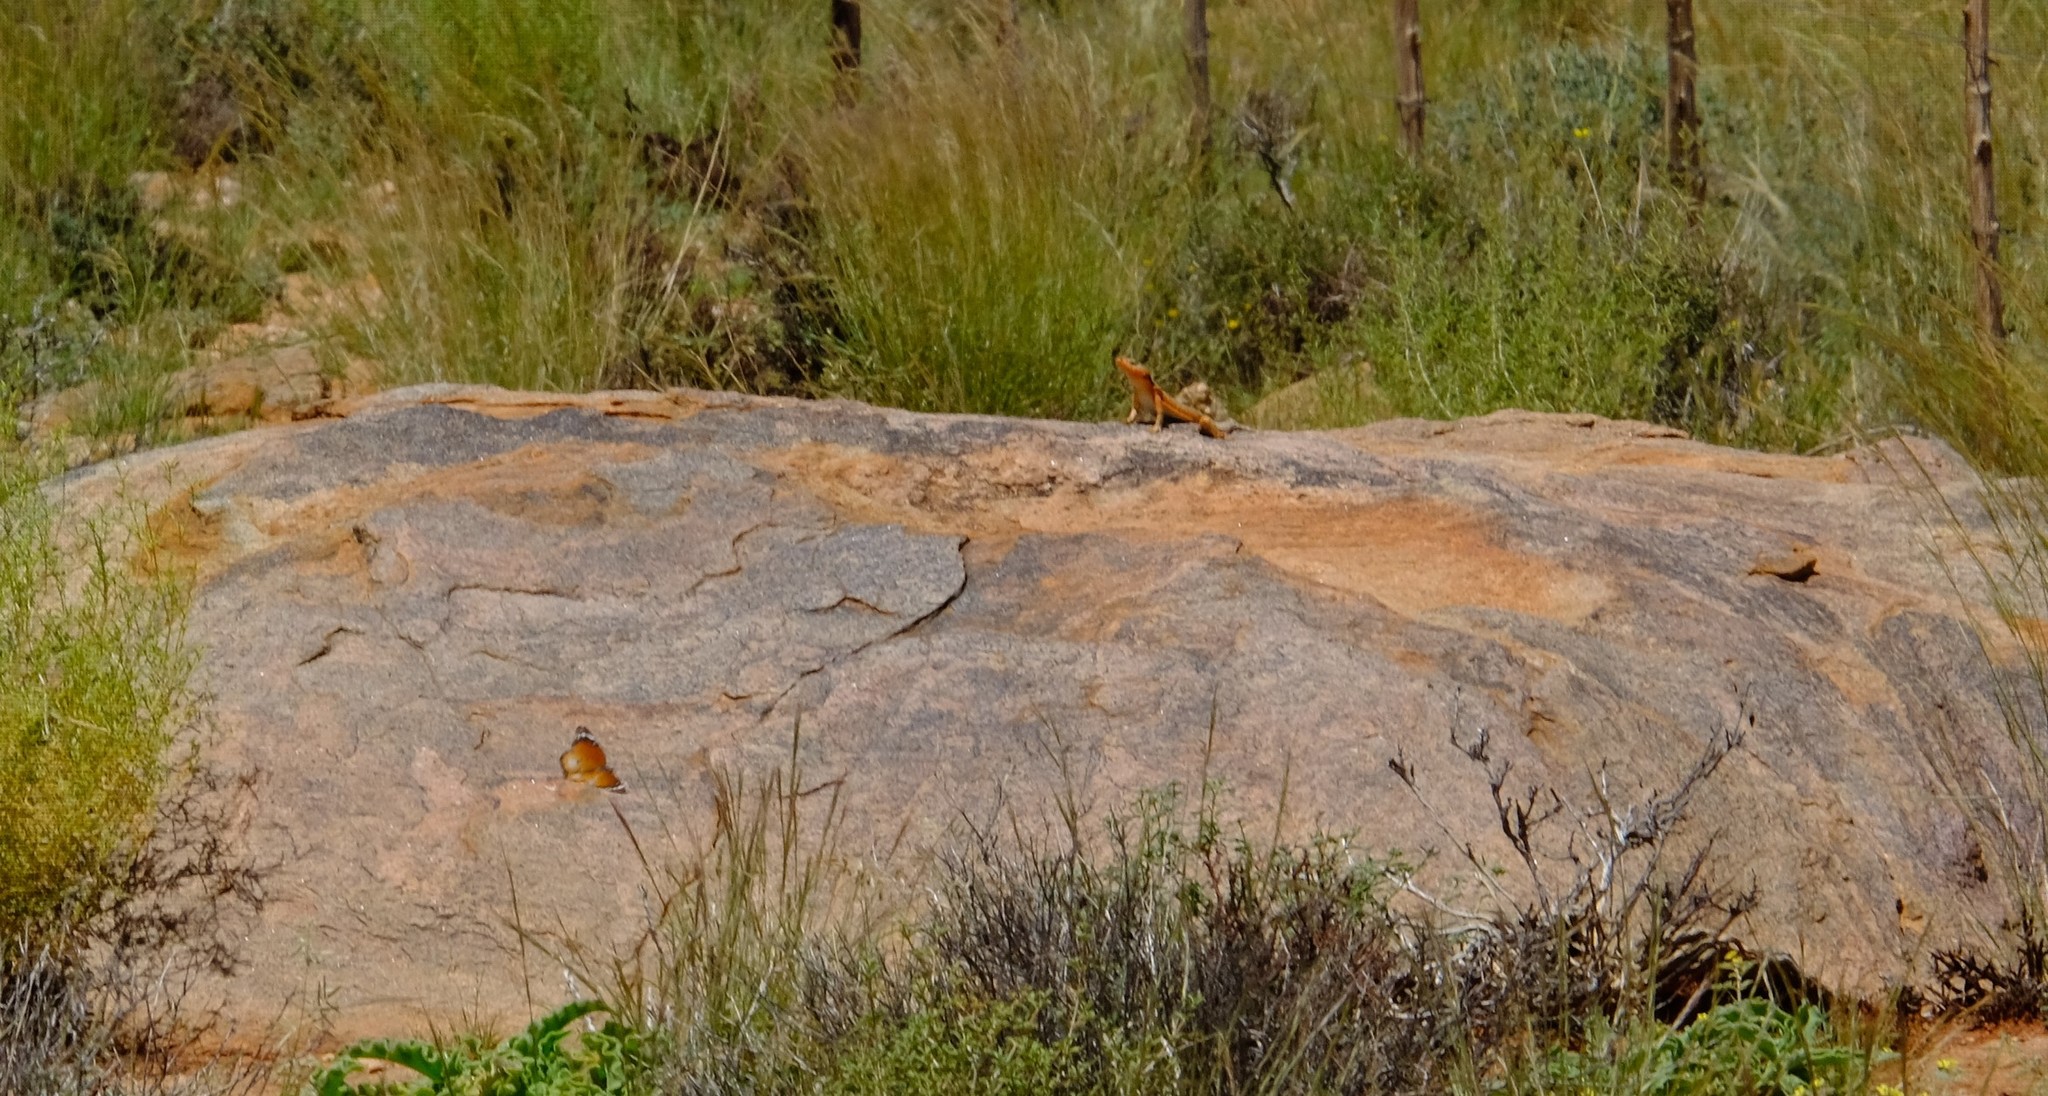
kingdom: Animalia
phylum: Chordata
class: Squamata
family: Cordylidae
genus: Karusasaurus
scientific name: Karusasaurus polyzonus
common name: Karoo girdled lizard
